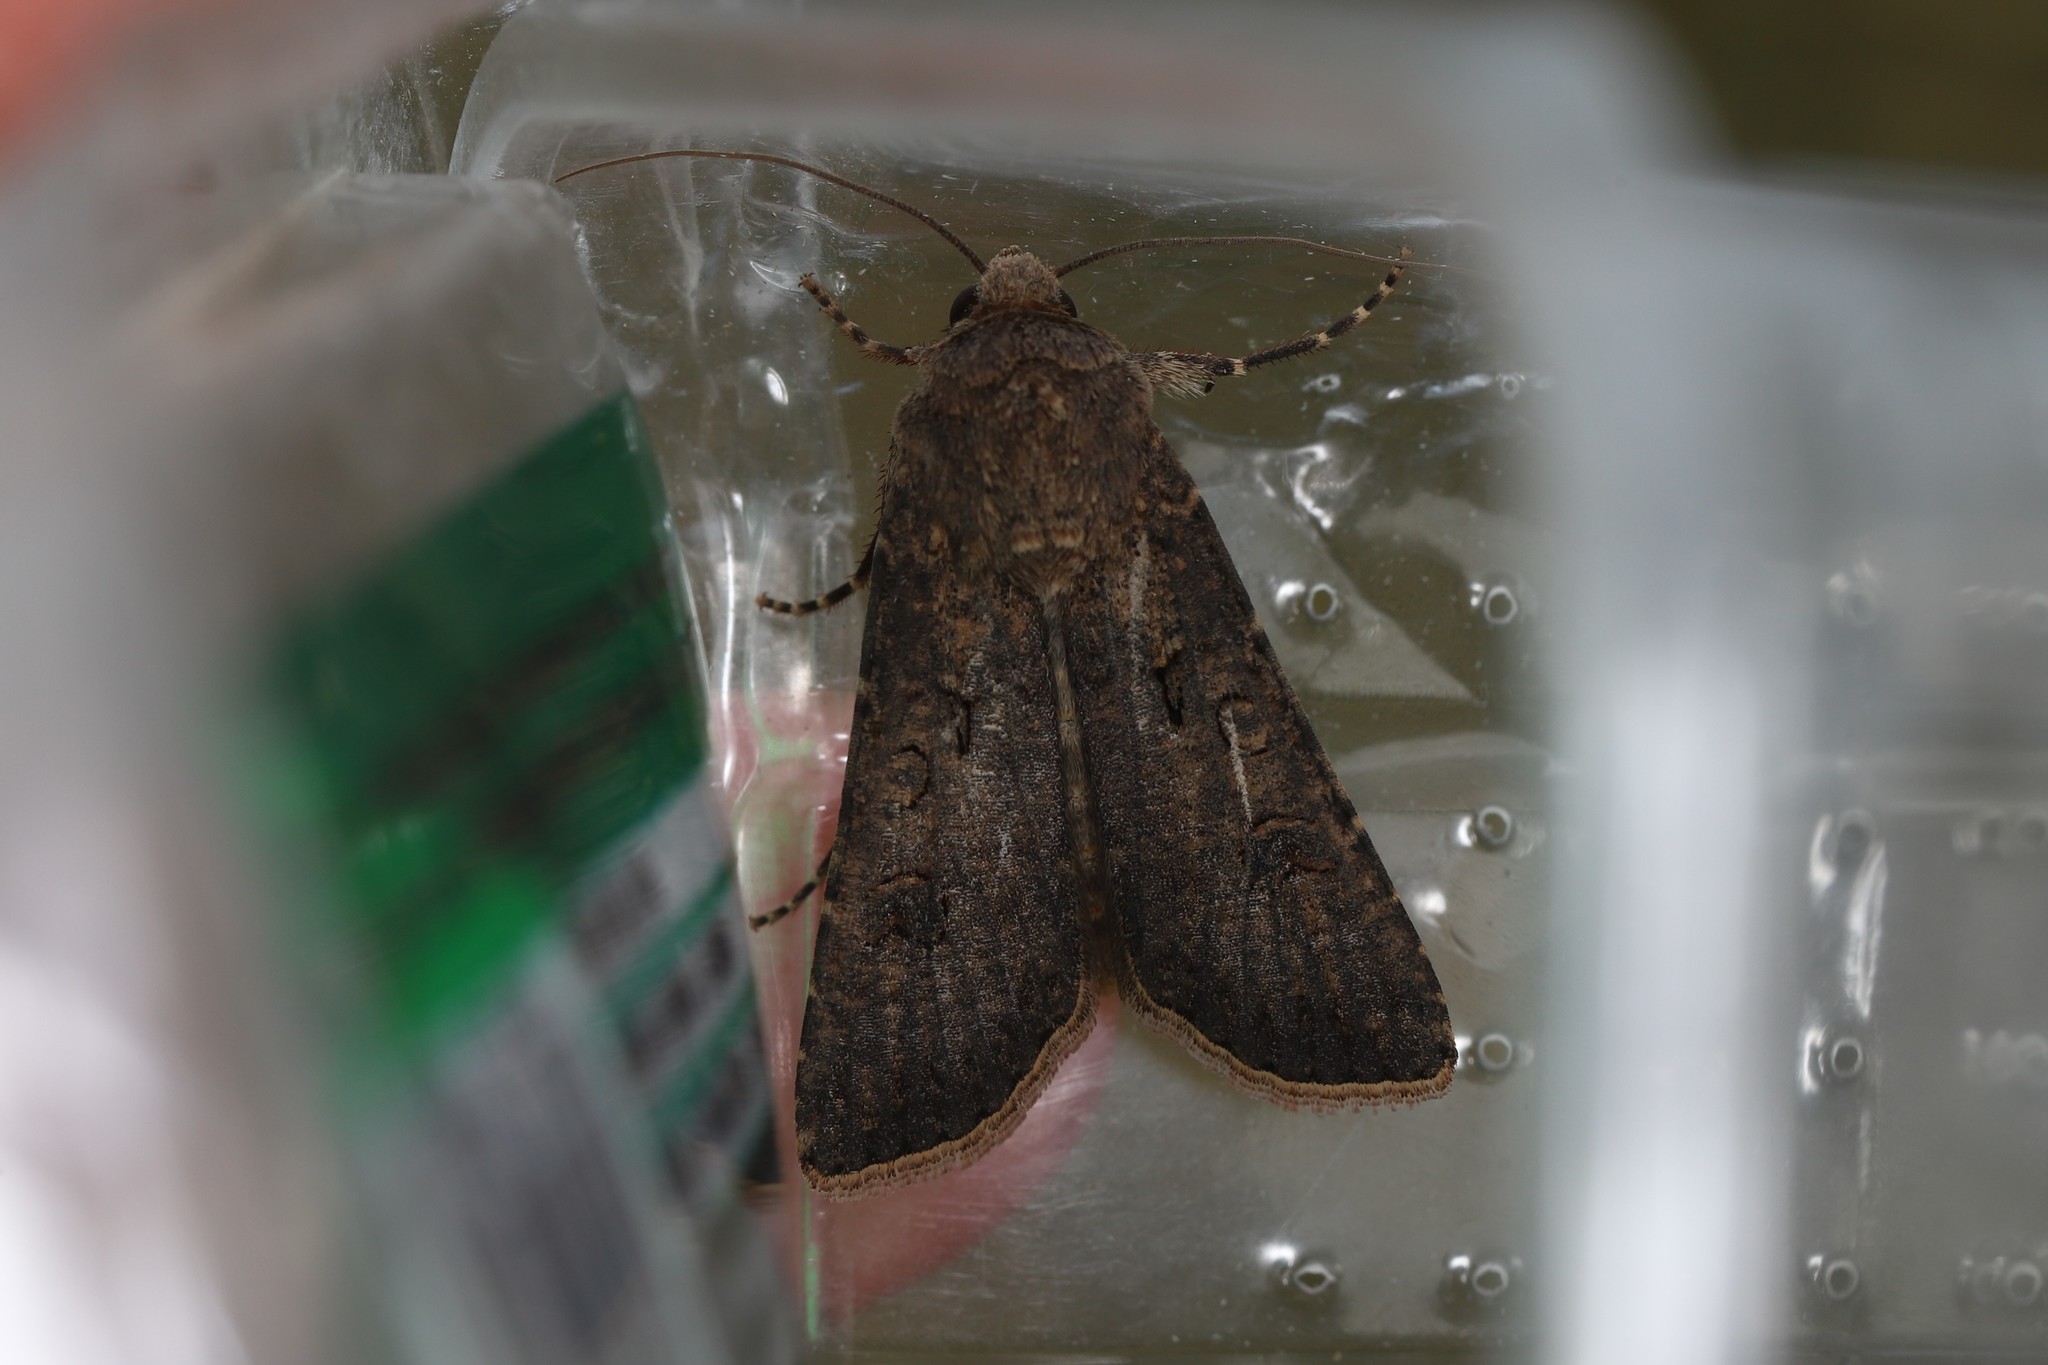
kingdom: Animalia
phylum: Arthropoda
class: Insecta
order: Lepidoptera
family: Noctuidae
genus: Agrotis
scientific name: Agrotis segetum
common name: Turnip moth
